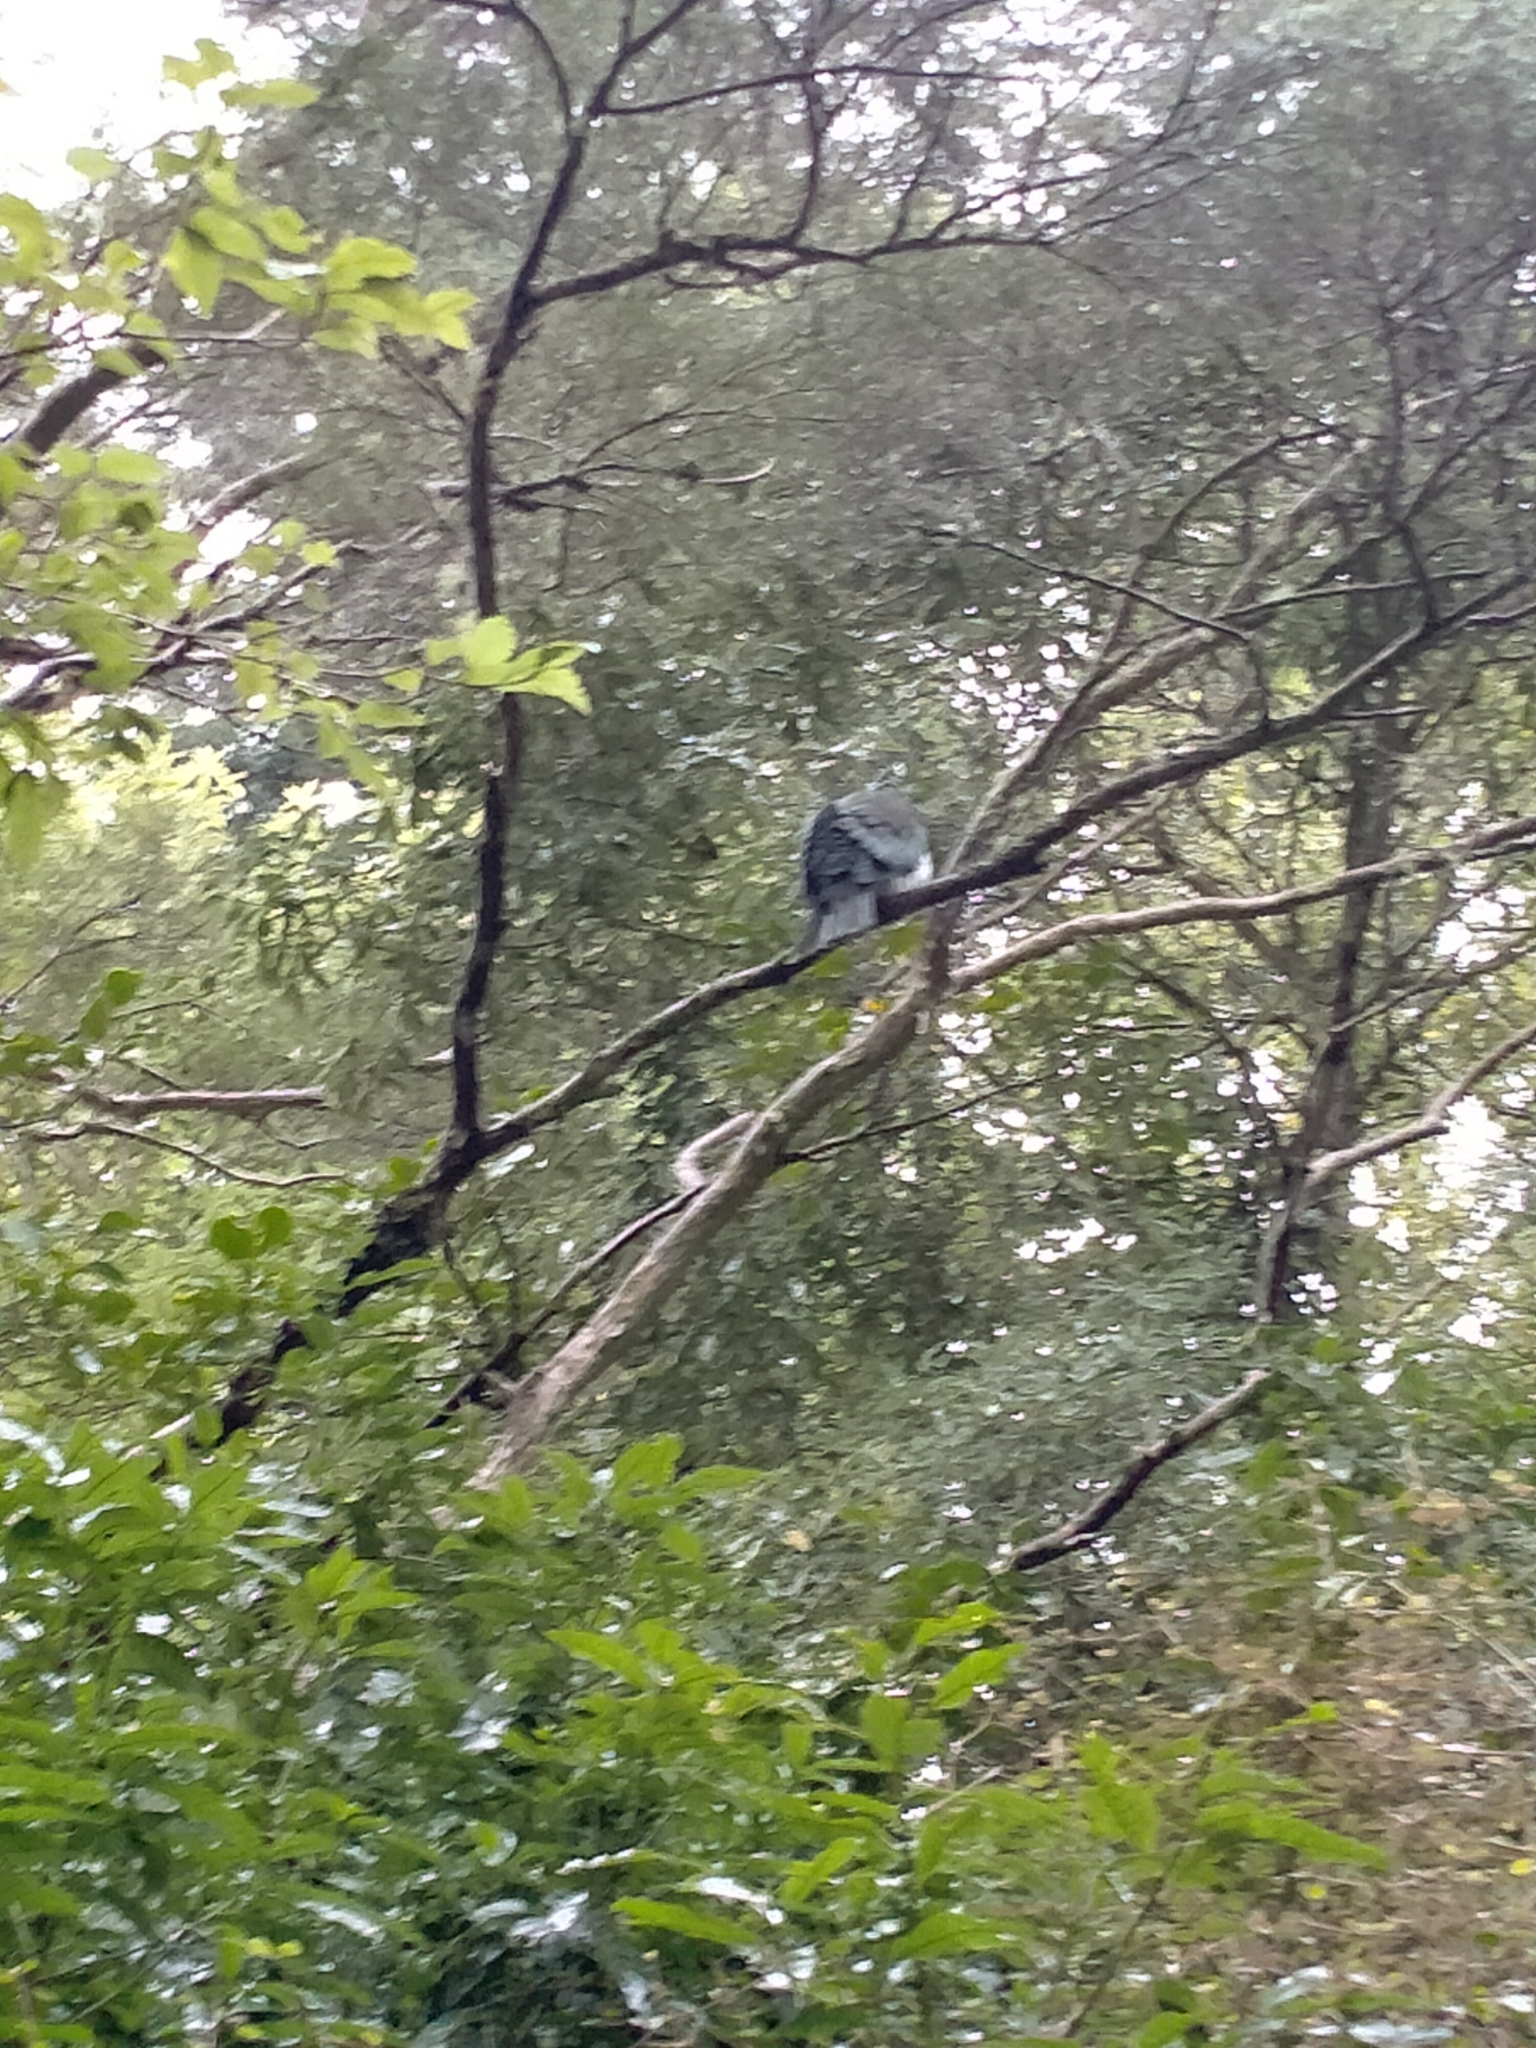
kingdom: Animalia
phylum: Chordata
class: Aves
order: Columbiformes
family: Columbidae
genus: Hemiphaga
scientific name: Hemiphaga novaeseelandiae
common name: New zealand pigeon
